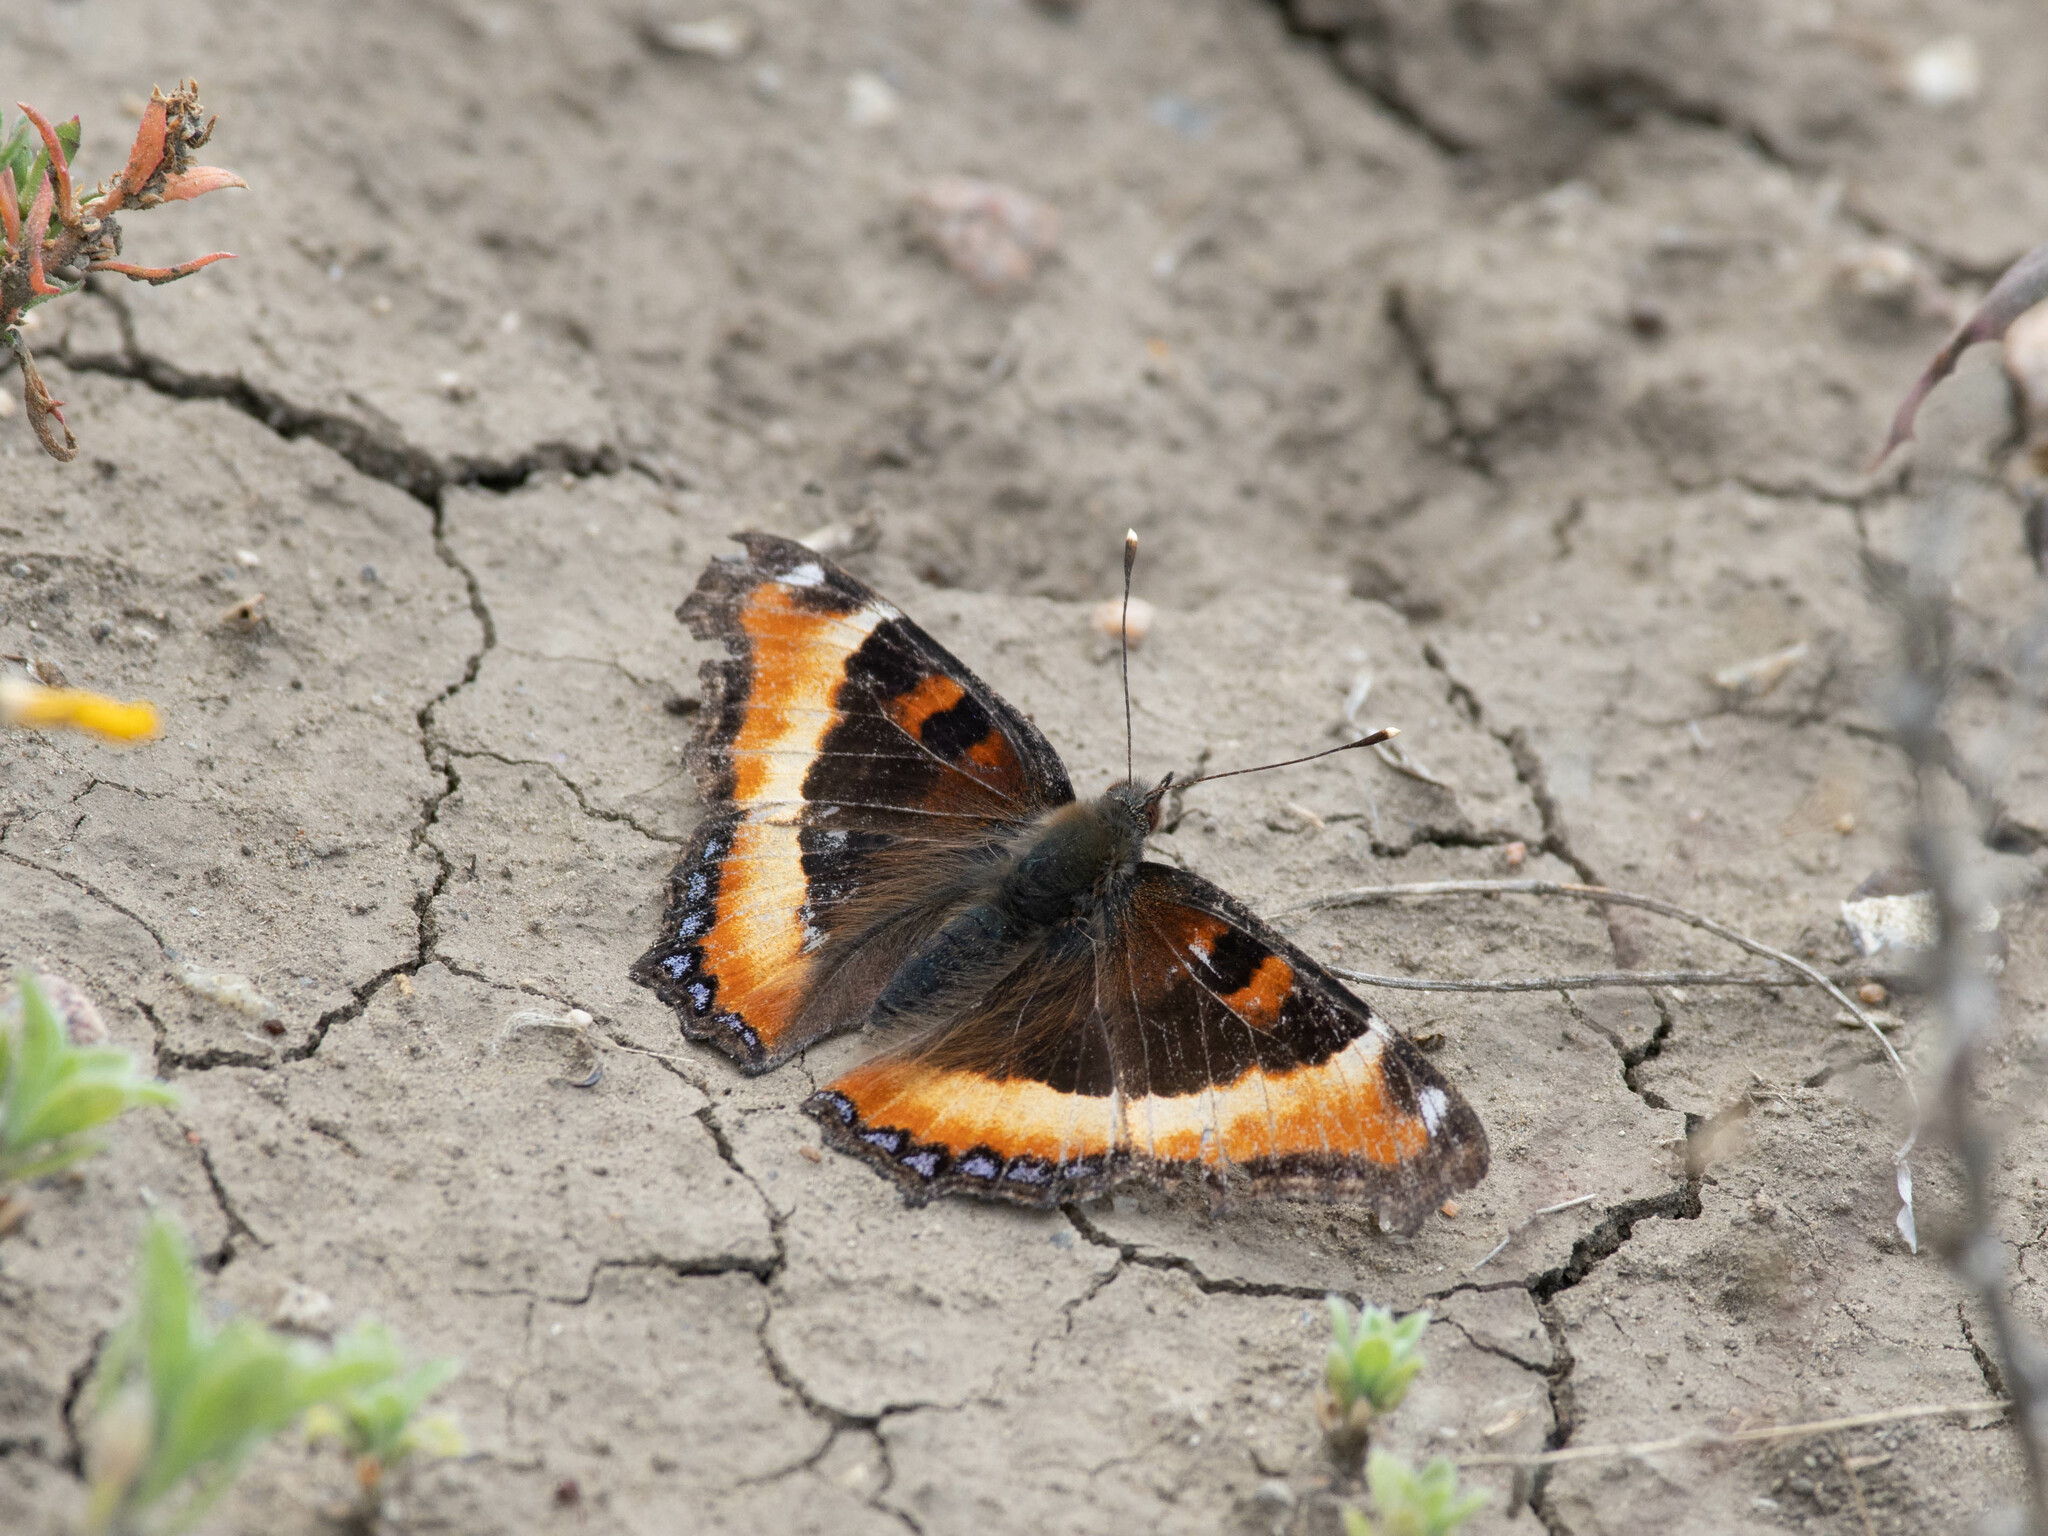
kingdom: Animalia
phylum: Arthropoda
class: Insecta
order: Lepidoptera
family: Nymphalidae
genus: Aglais
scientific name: Aglais milberti
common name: Milbert's tortoiseshell
